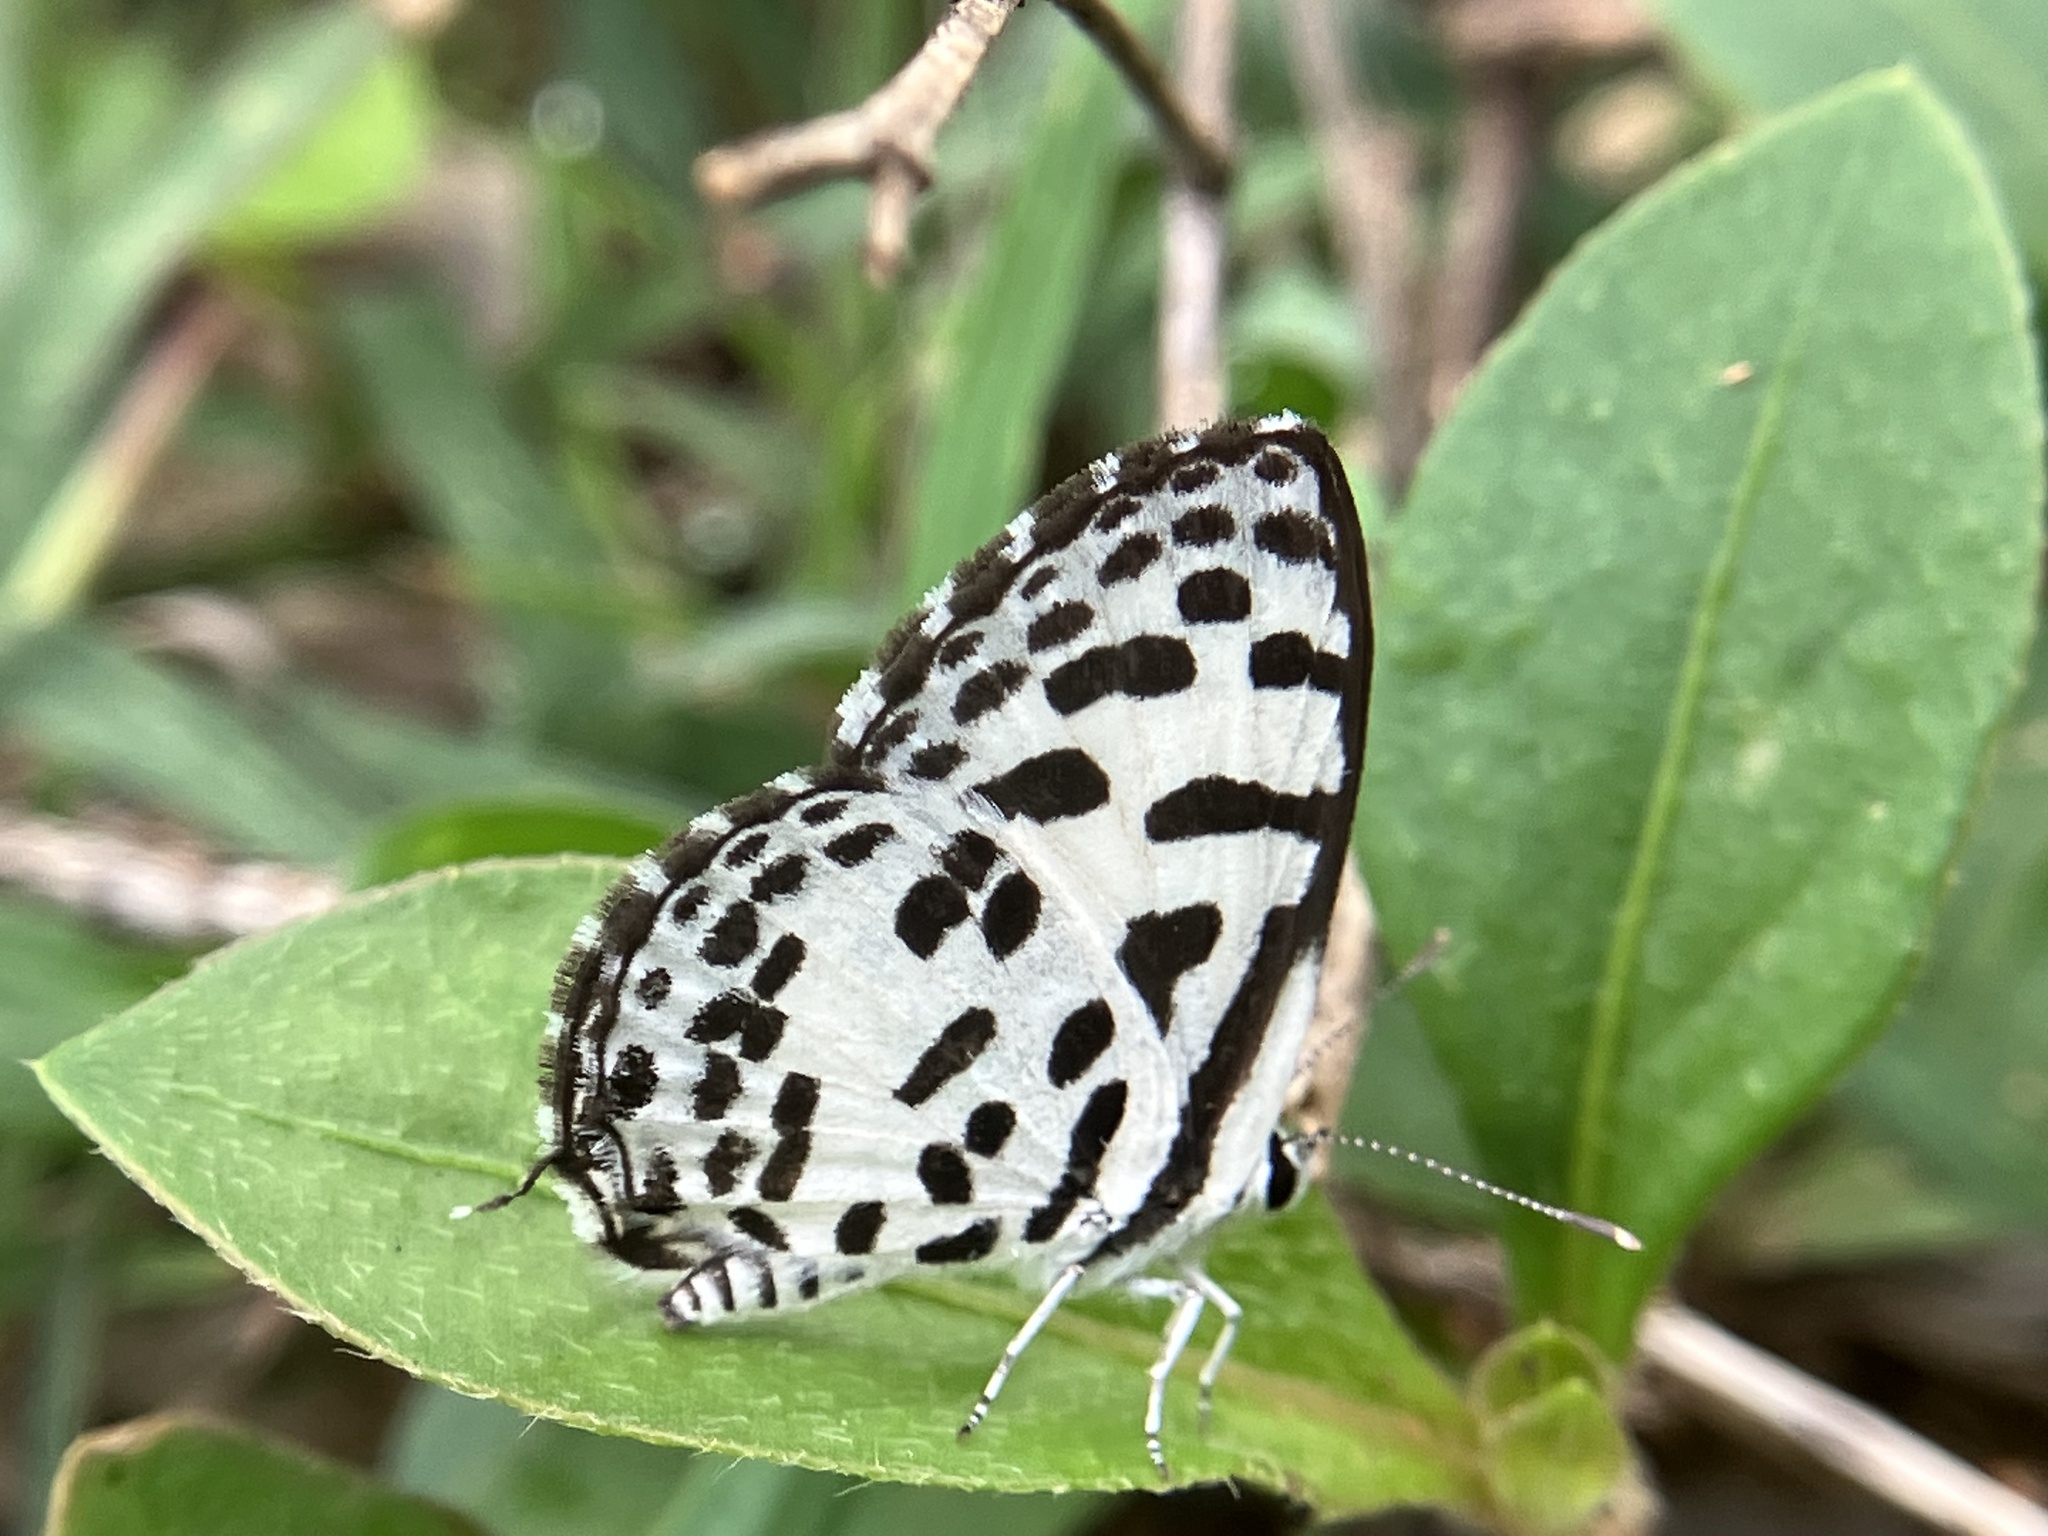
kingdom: Animalia
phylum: Arthropoda
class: Insecta
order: Lepidoptera
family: Lycaenidae
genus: Castalius
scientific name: Castalius rosimon
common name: Common pierrot
